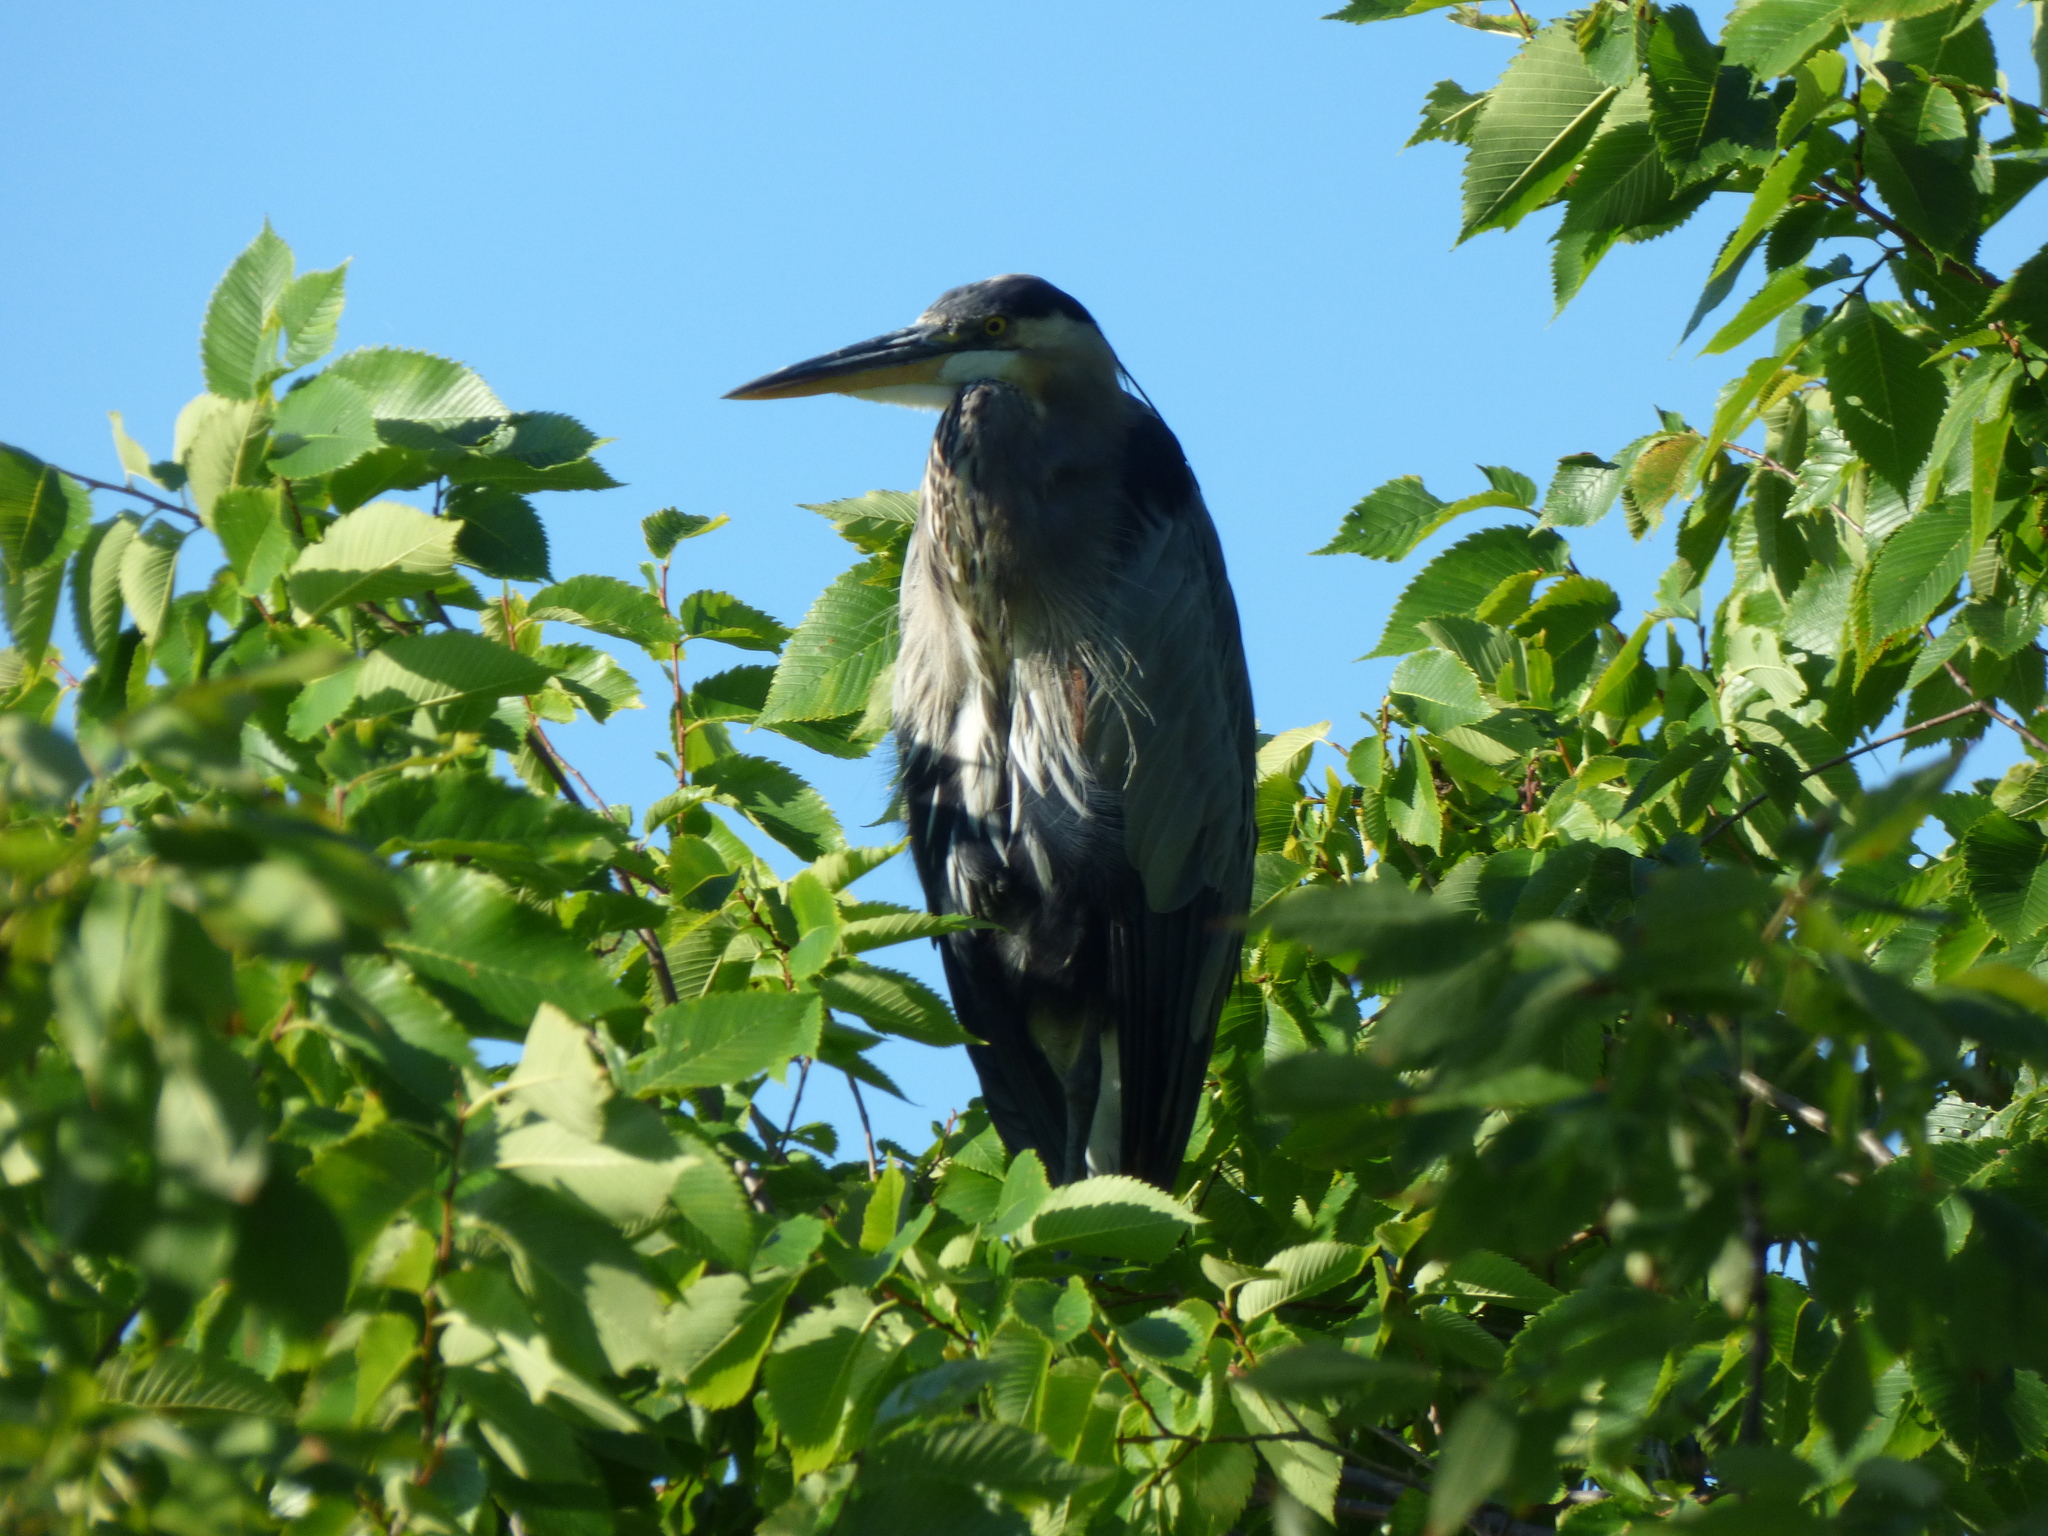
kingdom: Animalia
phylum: Chordata
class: Aves
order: Pelecaniformes
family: Ardeidae
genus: Ardea
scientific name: Ardea herodias
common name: Great blue heron
